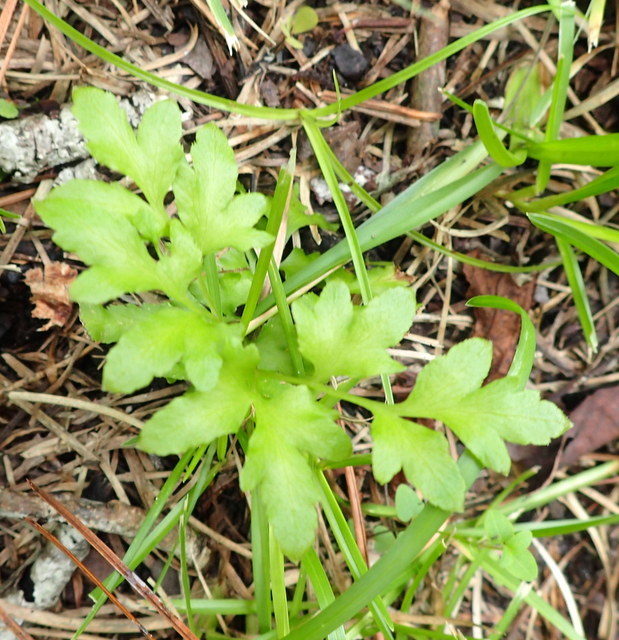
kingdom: Plantae
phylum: Tracheophyta
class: Polypodiopsida
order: Schizaeales
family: Lygodiaceae
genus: Lygodium
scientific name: Lygodium japonicum
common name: Japanese climbing fern
